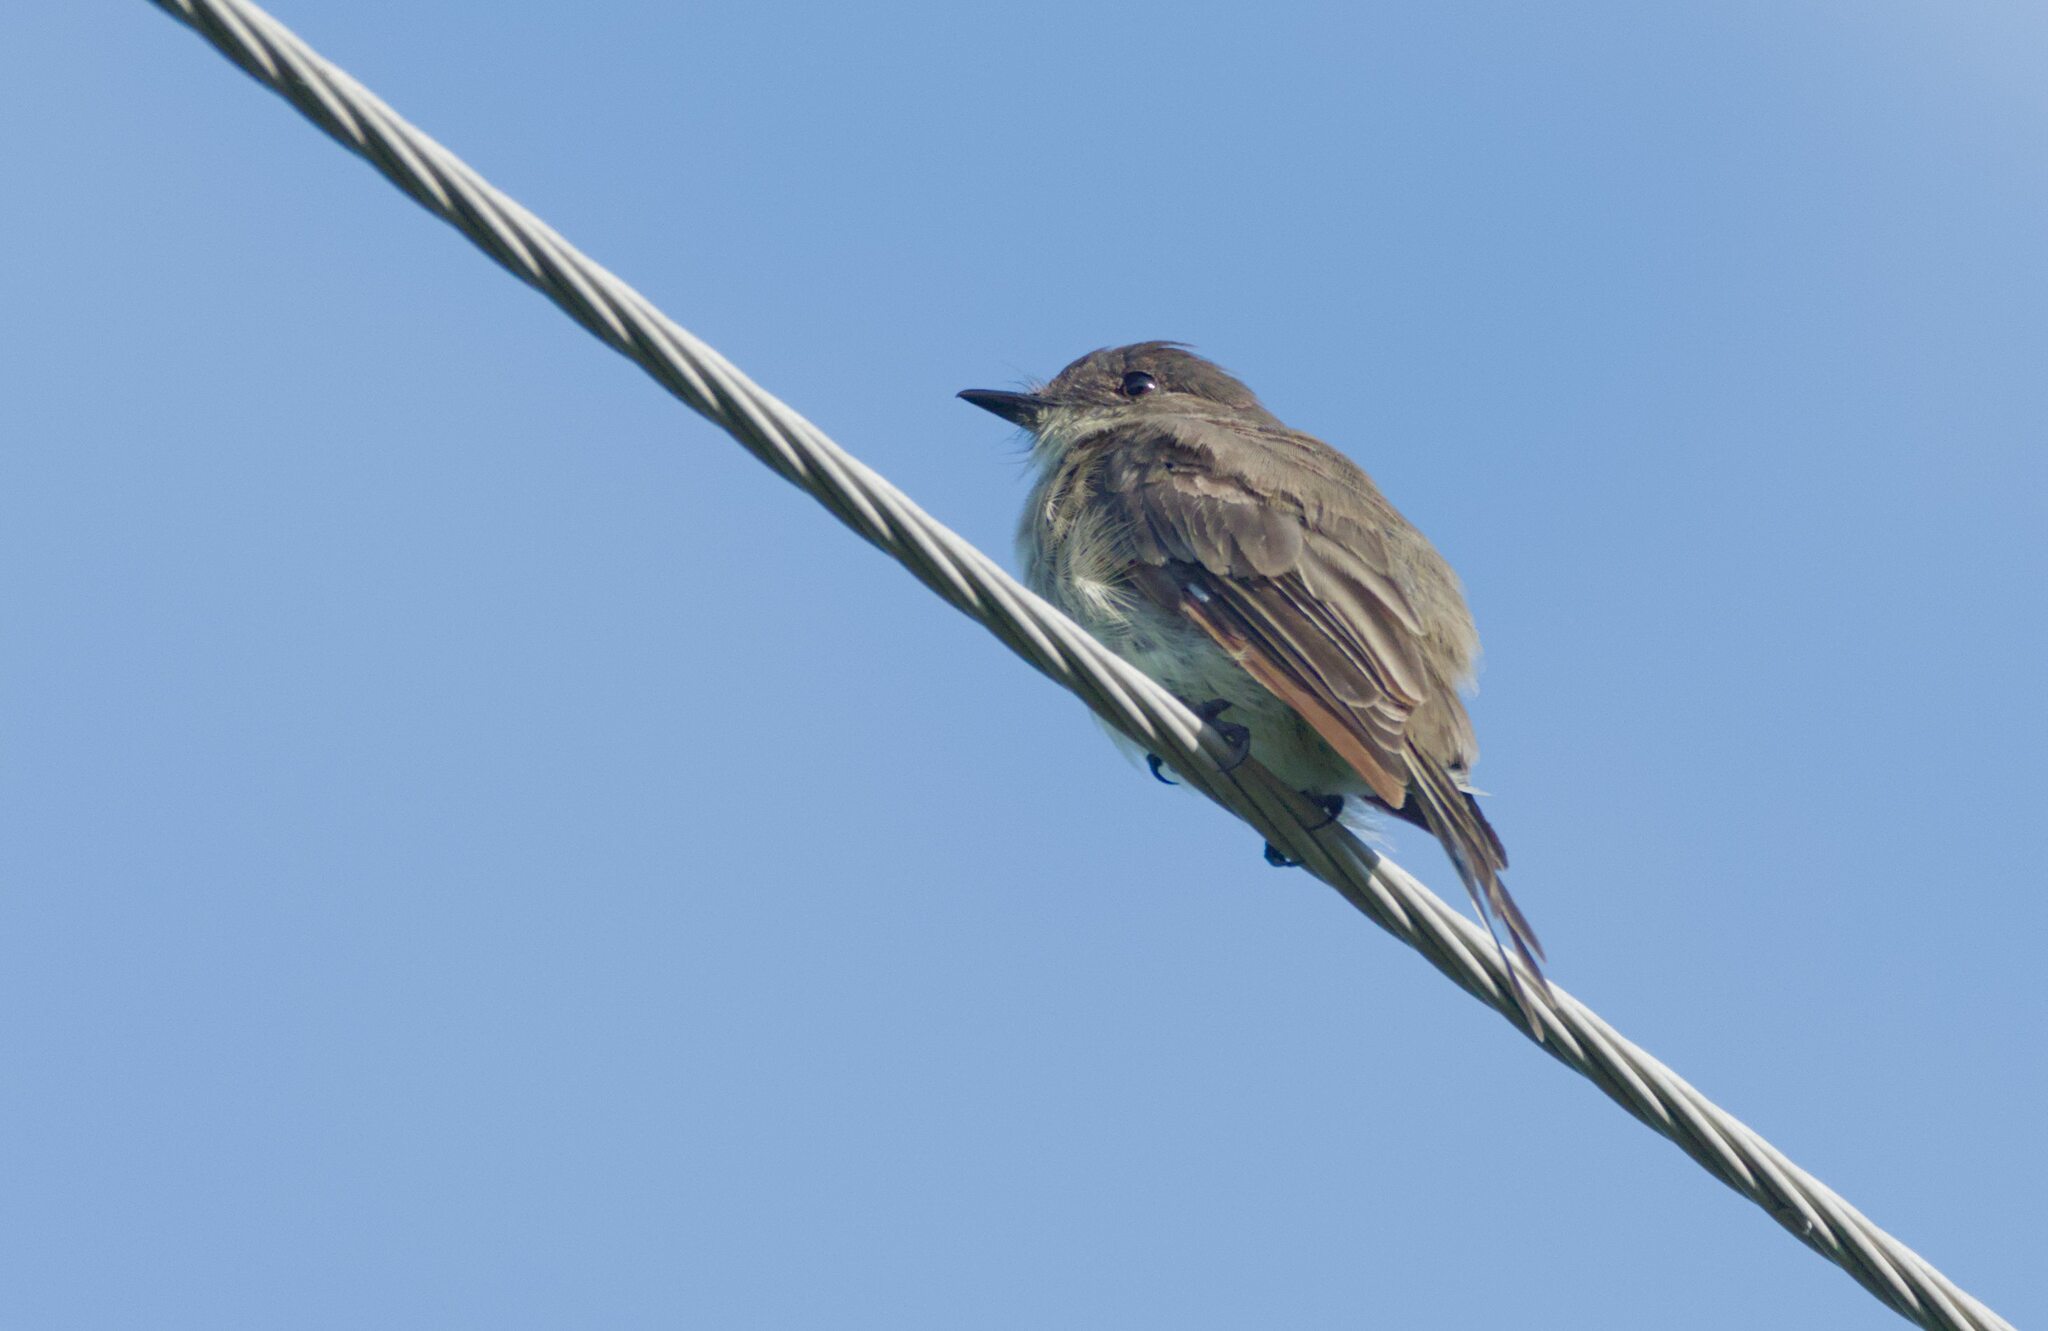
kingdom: Animalia
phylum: Chordata
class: Aves
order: Passeriformes
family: Tyrannidae
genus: Sayornis
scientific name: Sayornis phoebe
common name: Eastern phoebe
